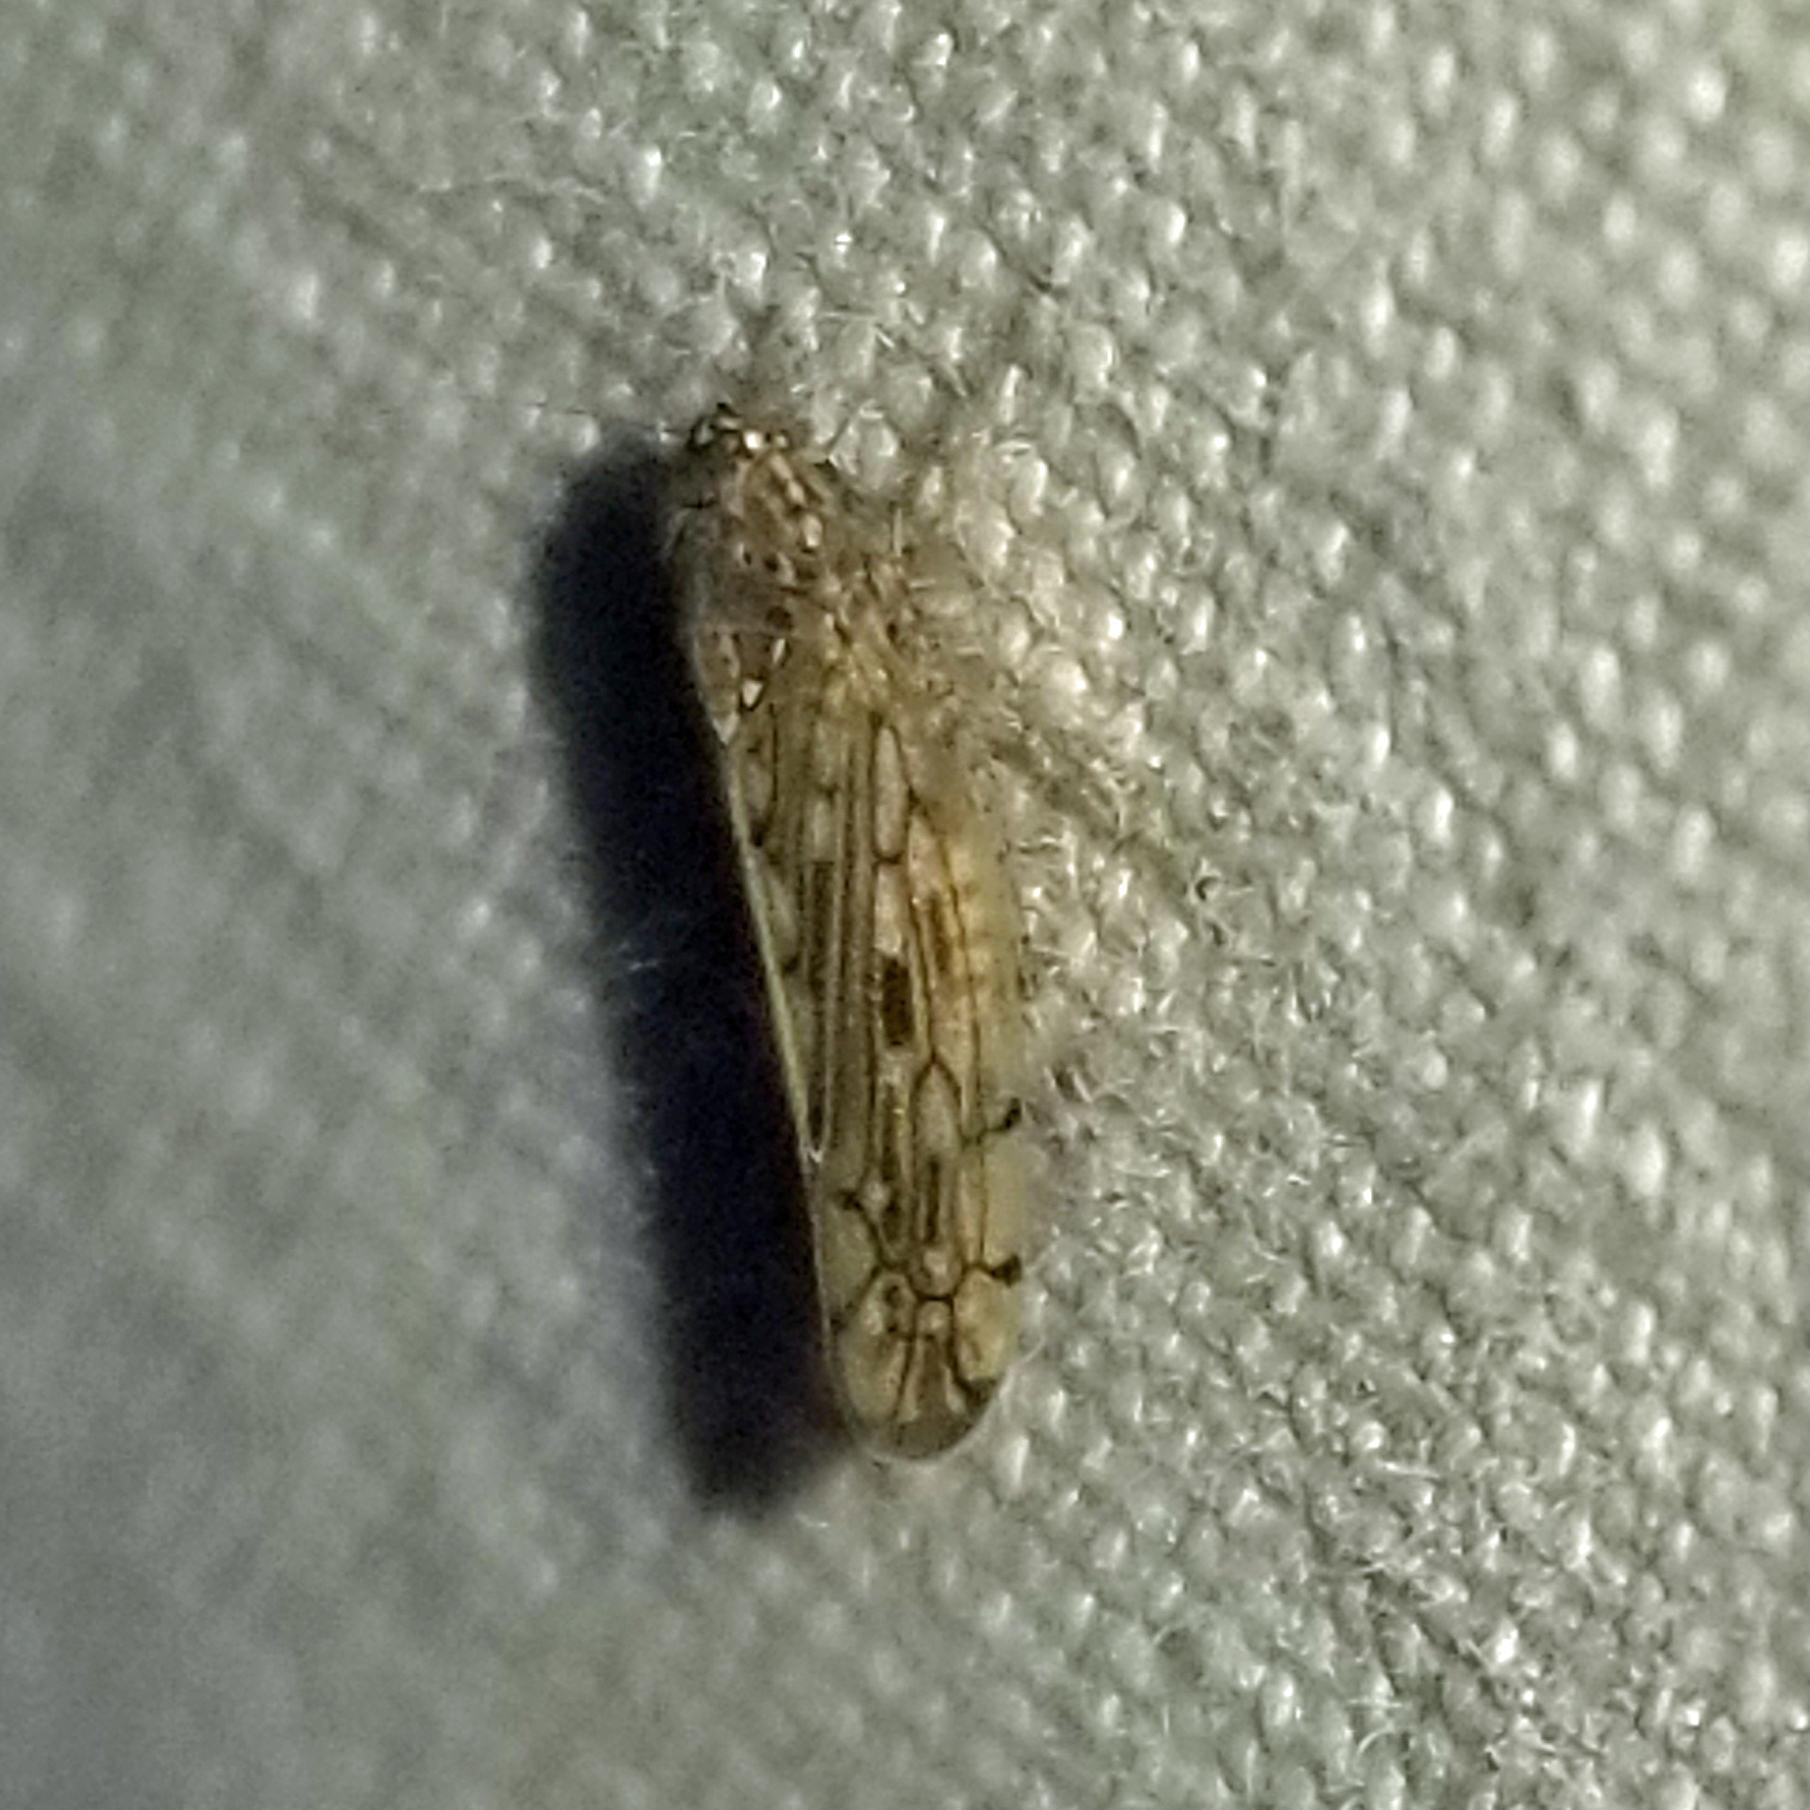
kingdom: Animalia
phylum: Arthropoda
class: Insecta
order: Hemiptera
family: Cicadellidae
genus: Osbornellus
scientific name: Osbornellus clarus
